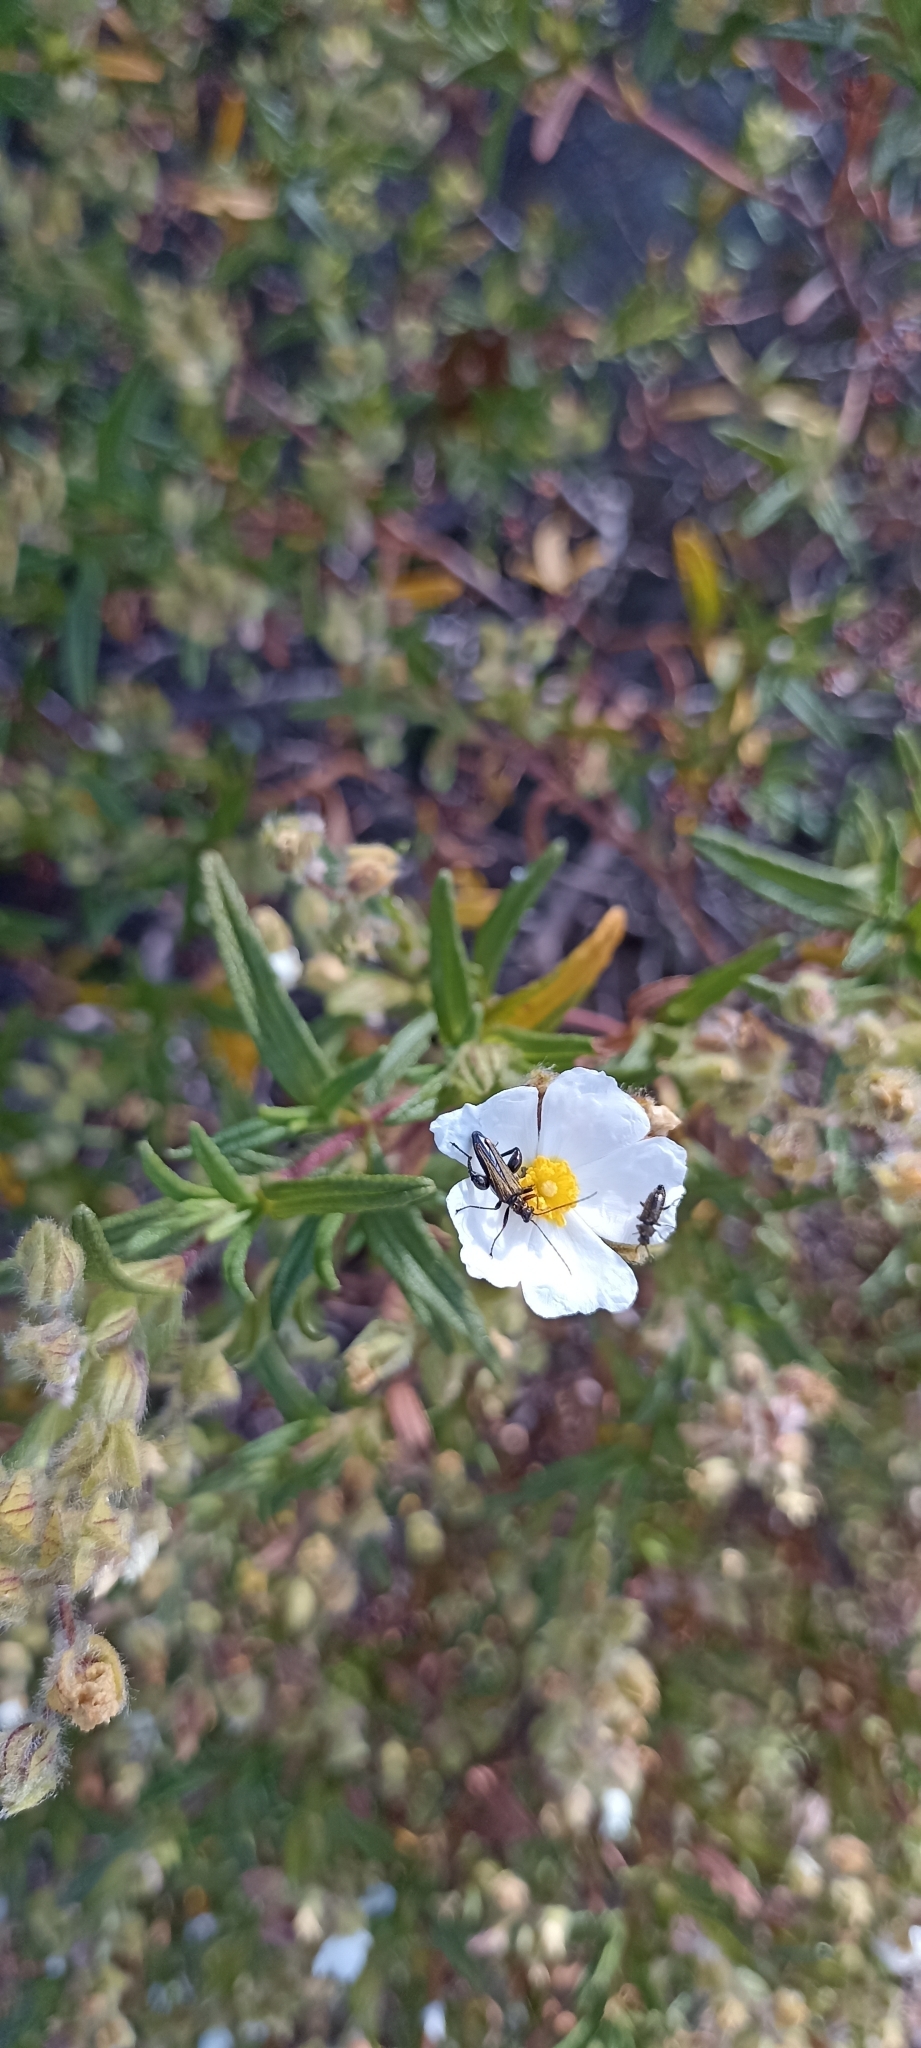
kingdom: Plantae
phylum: Tracheophyta
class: Magnoliopsida
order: Malvales
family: Cistaceae
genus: Cistus
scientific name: Cistus monspeliensis
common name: Montpelier cistus
